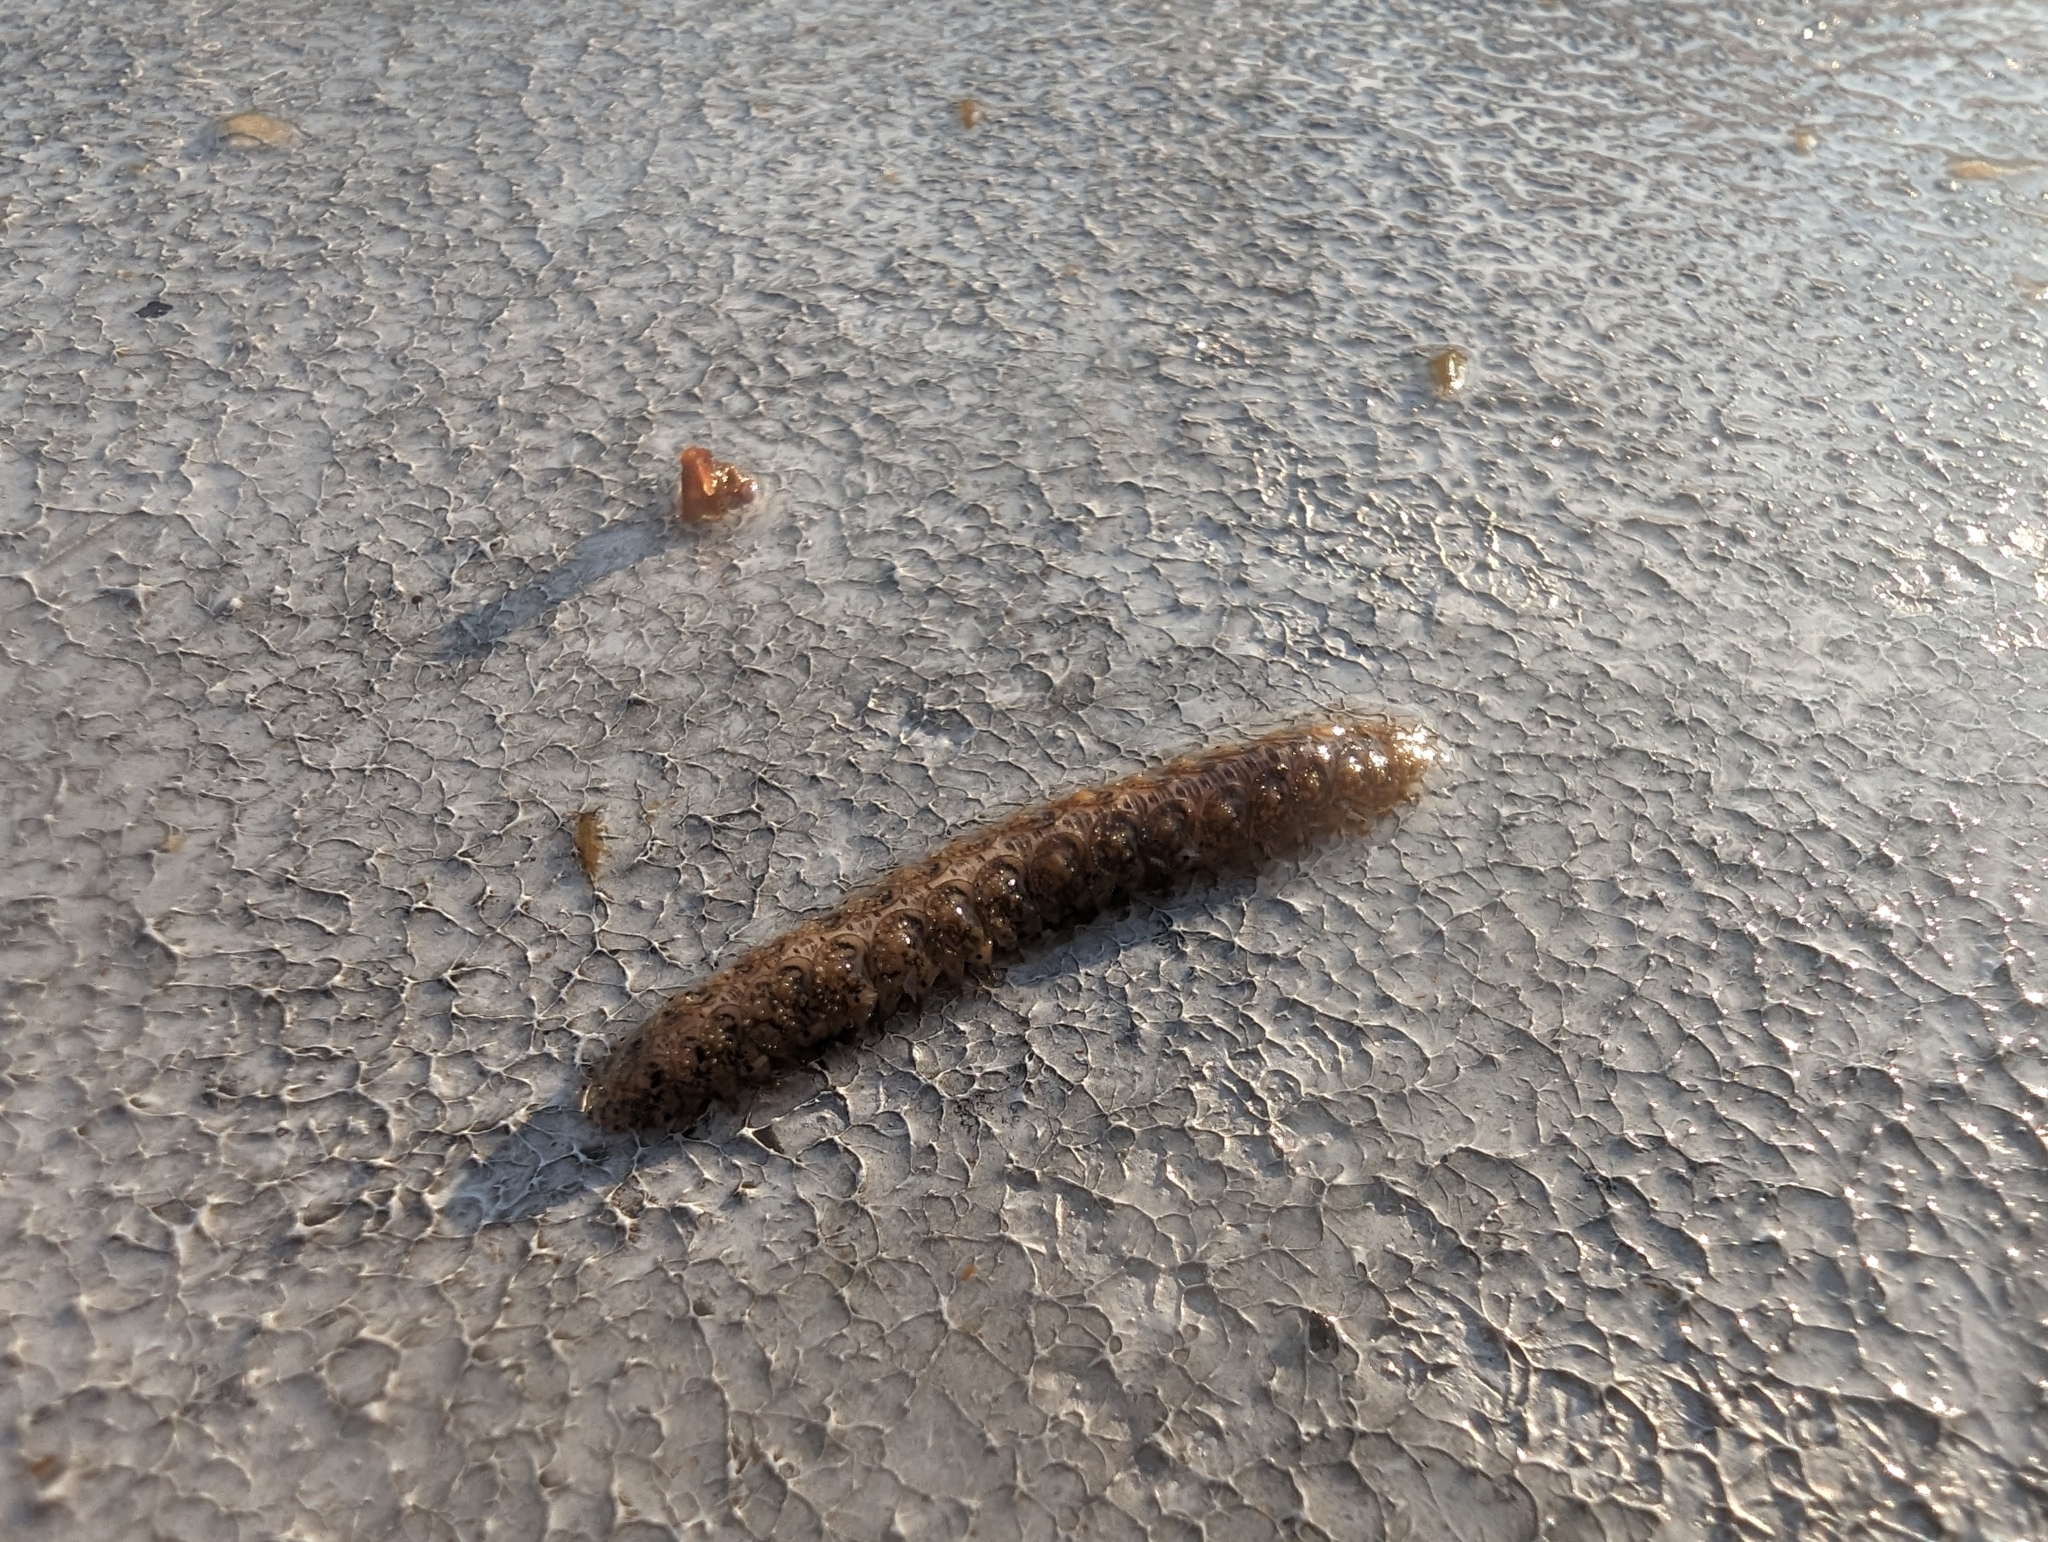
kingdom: Animalia
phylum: Annelida
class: Polychaeta
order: Phyllodocida
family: Polynoidae
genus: Halosydna
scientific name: Halosydna brevisetosa
